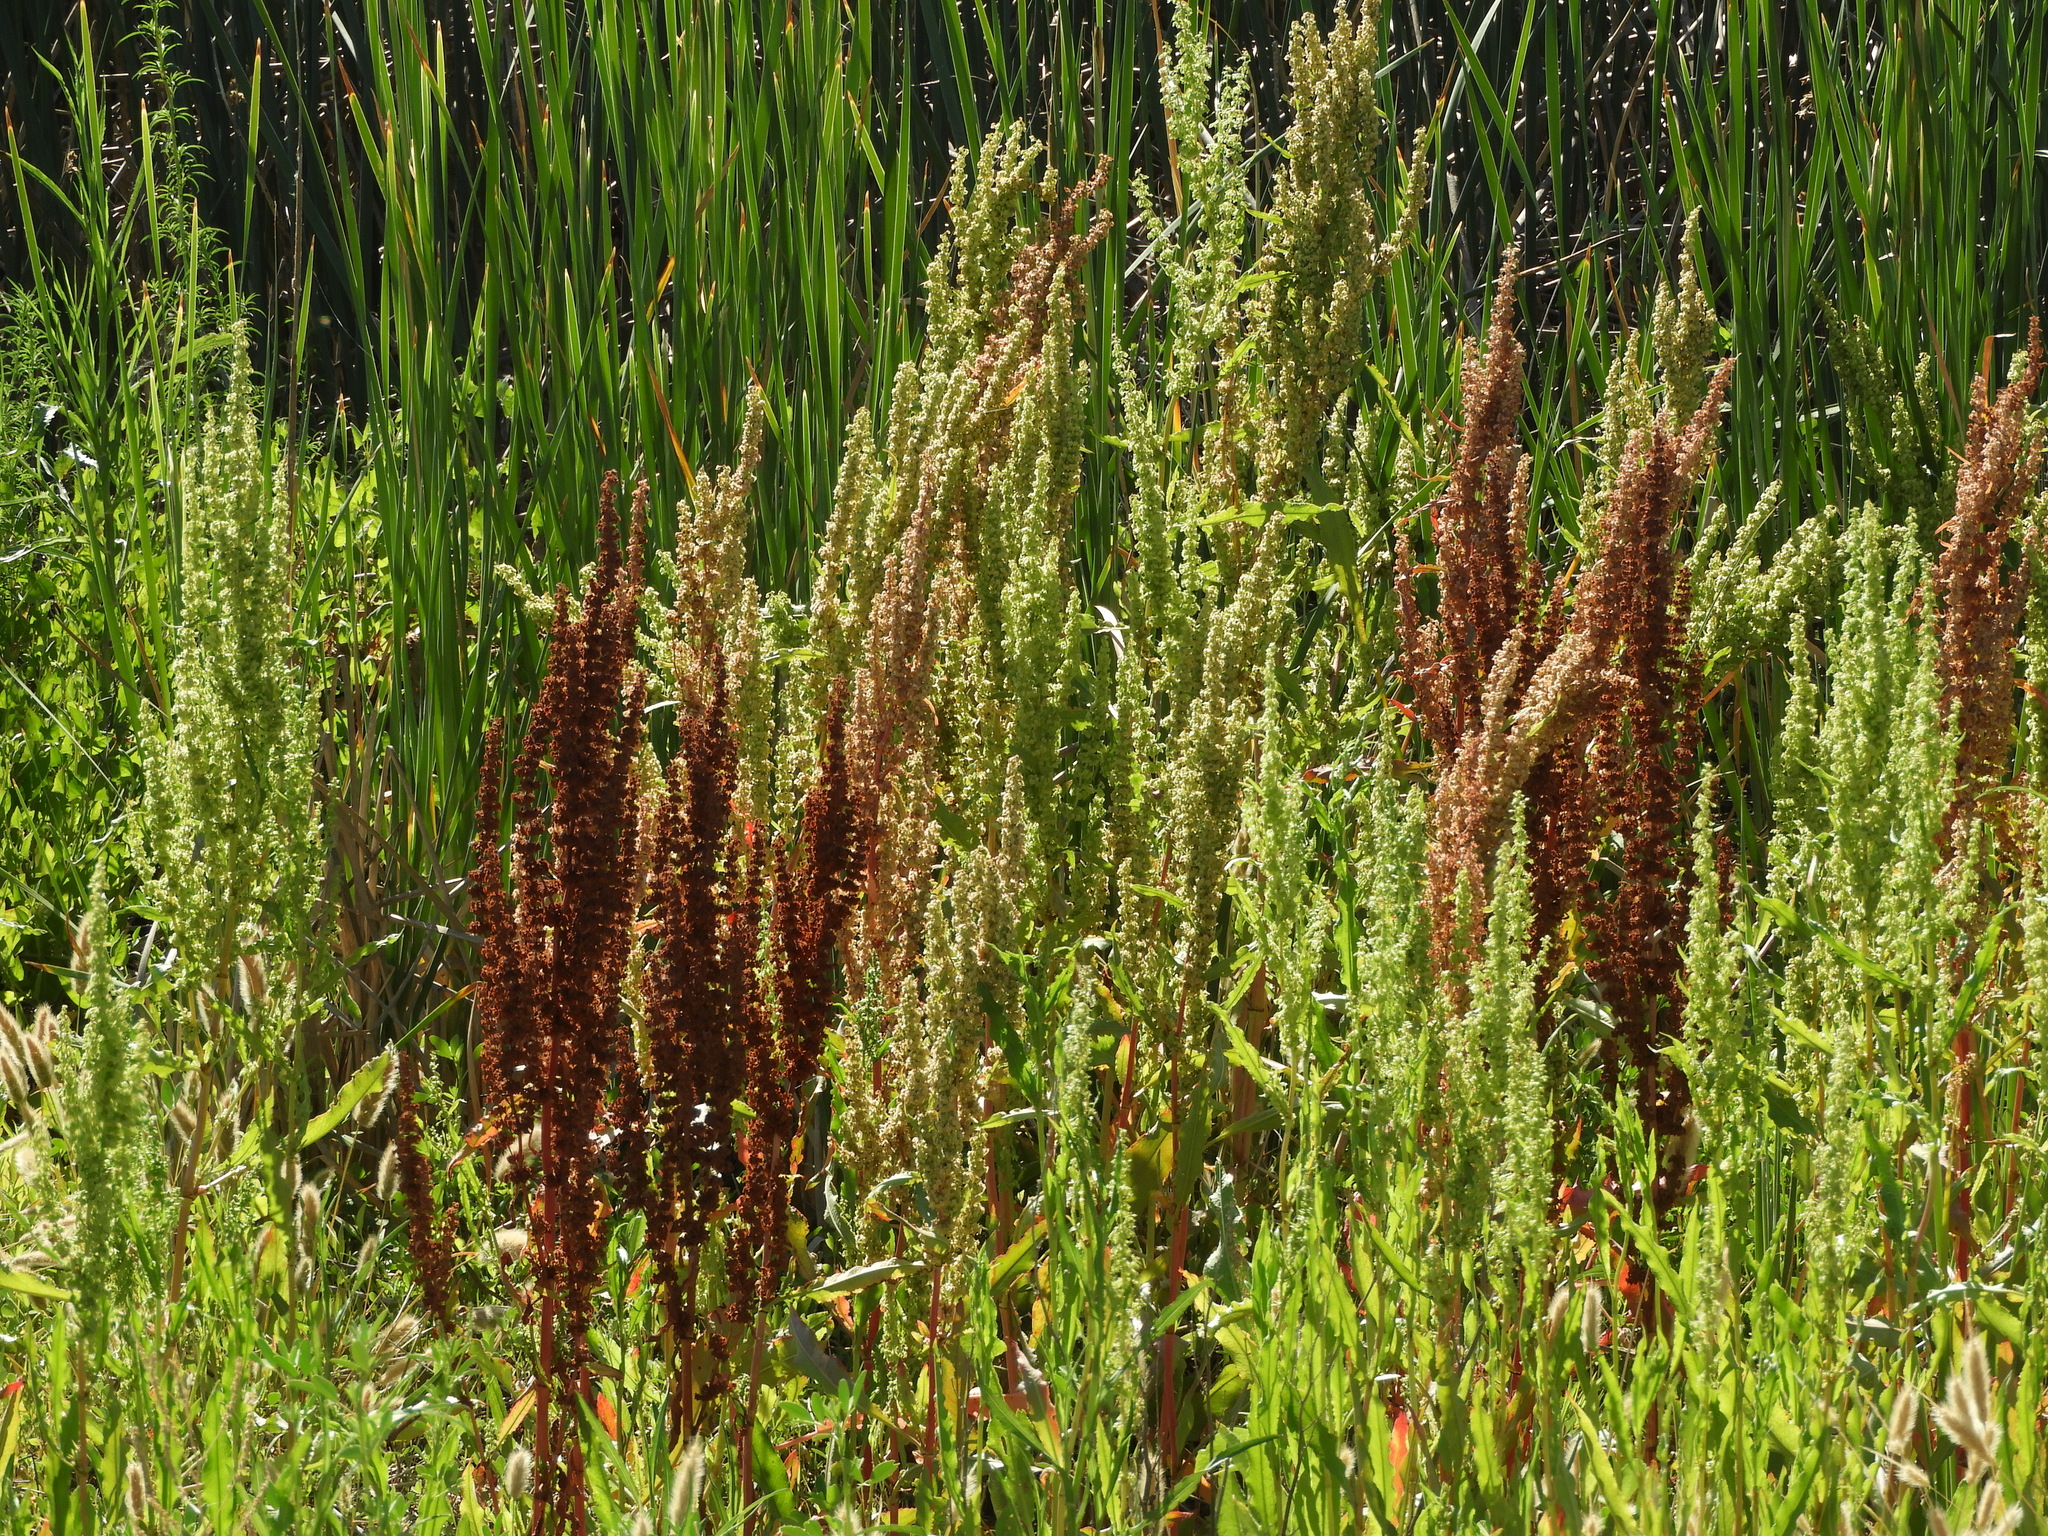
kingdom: Plantae
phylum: Tracheophyta
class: Magnoliopsida
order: Caryophyllales
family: Polygonaceae
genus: Rumex
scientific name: Rumex crispus
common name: Curled dock
